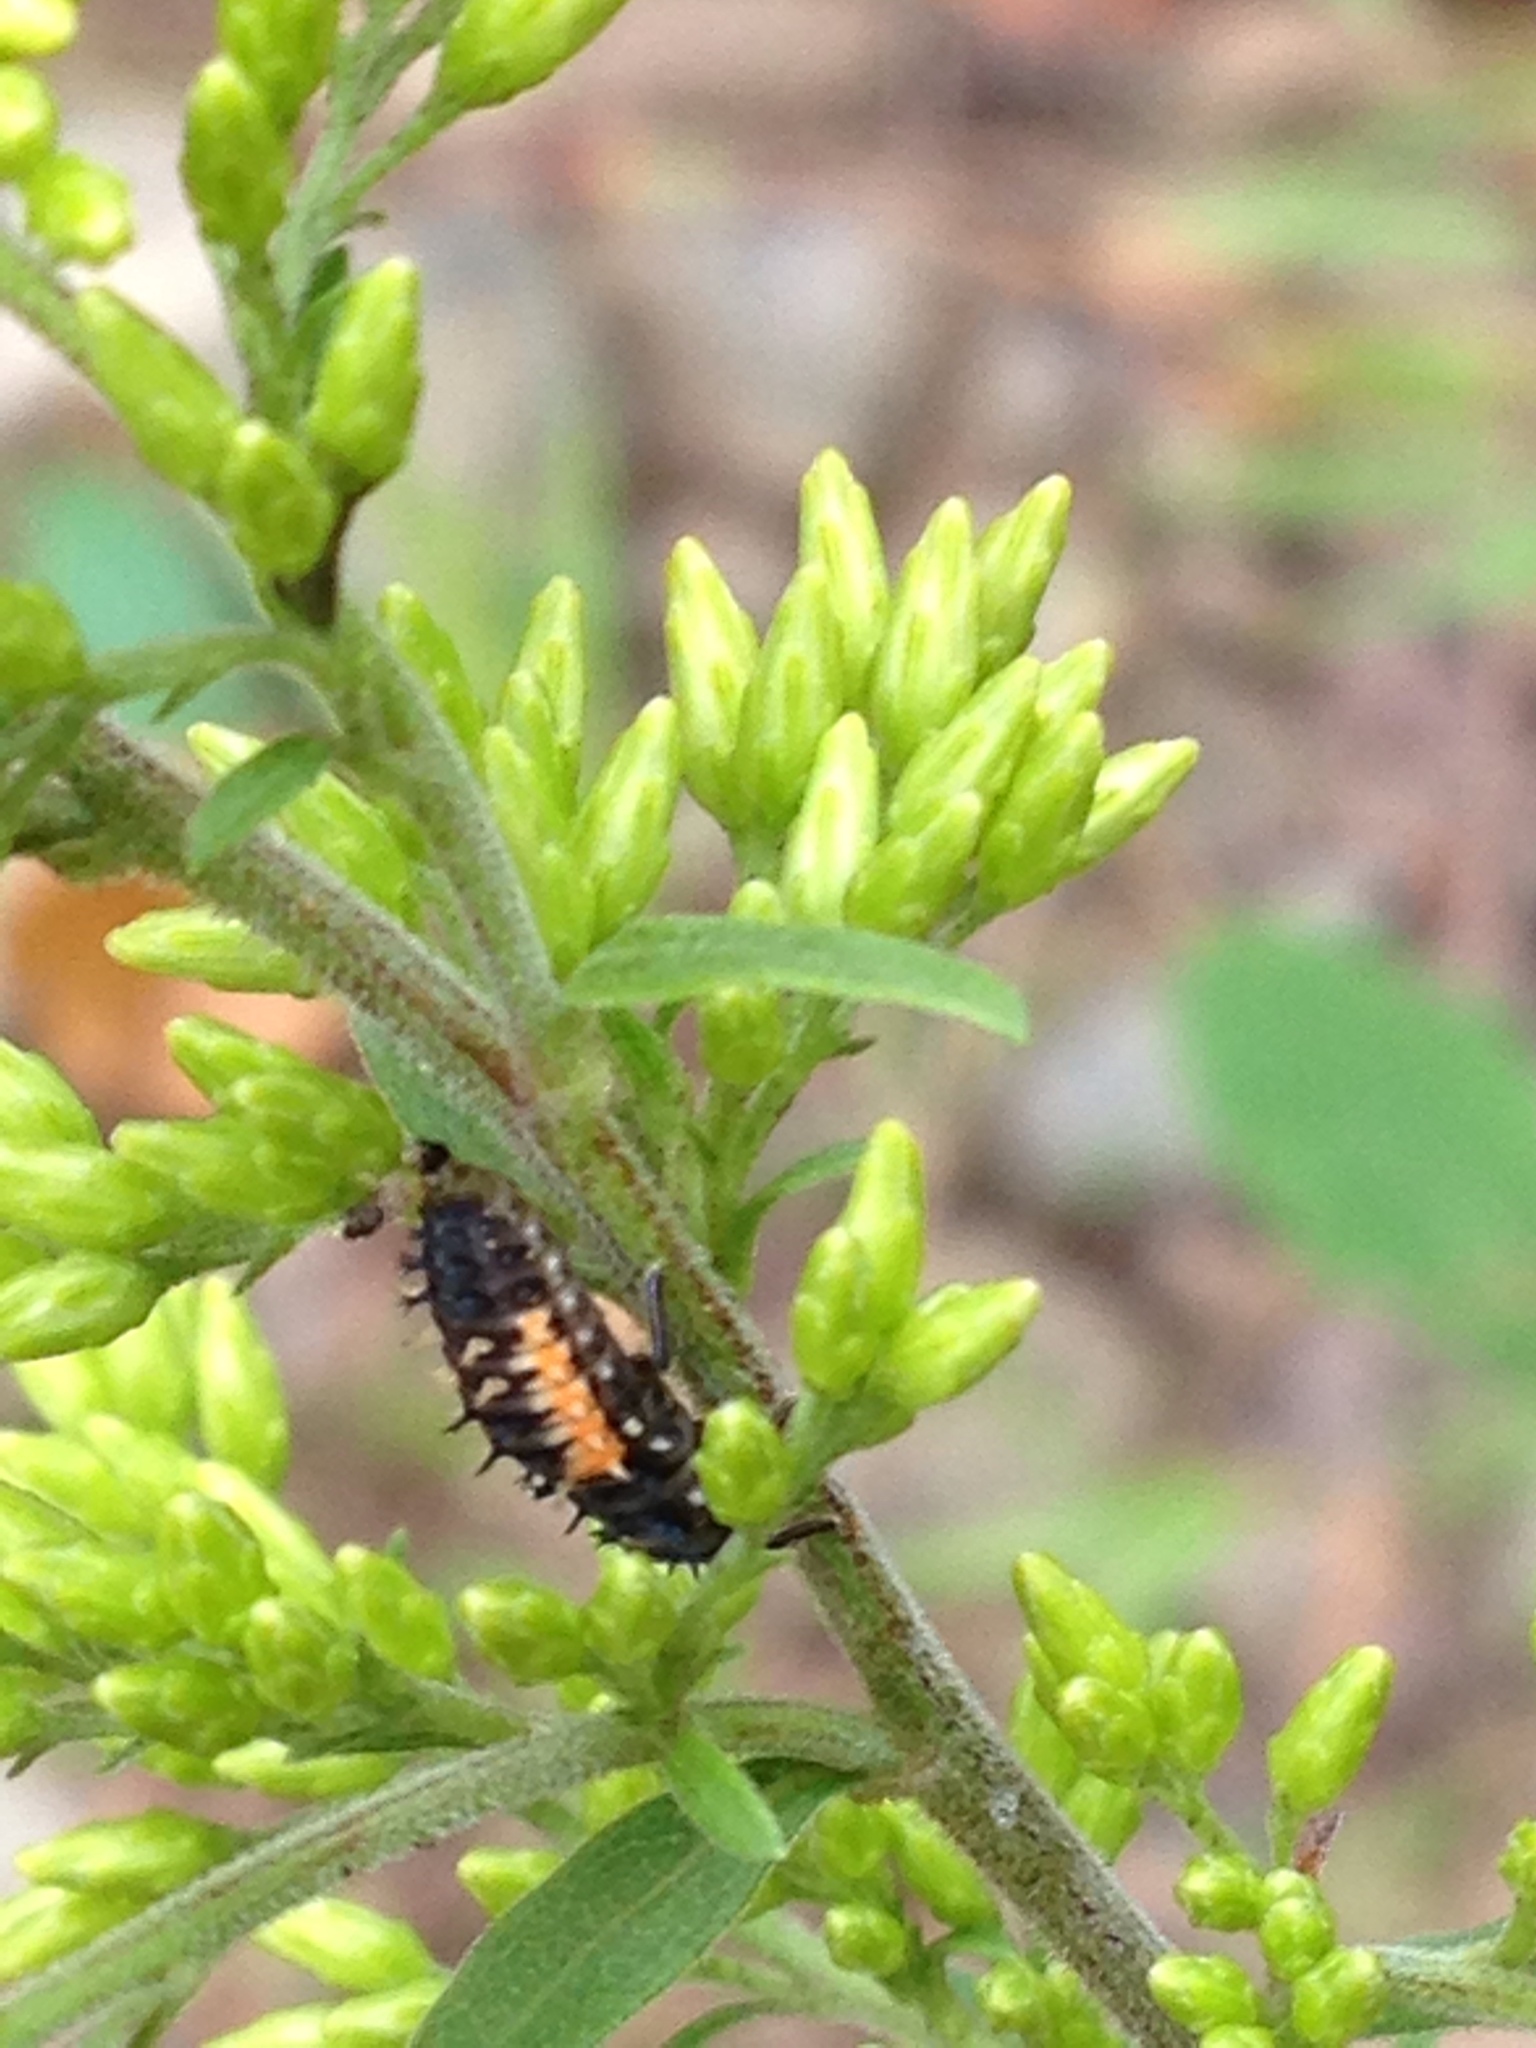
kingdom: Animalia
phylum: Arthropoda
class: Insecta
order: Coleoptera
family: Coccinellidae
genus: Harmonia
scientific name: Harmonia axyridis
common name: Harlequin ladybird
